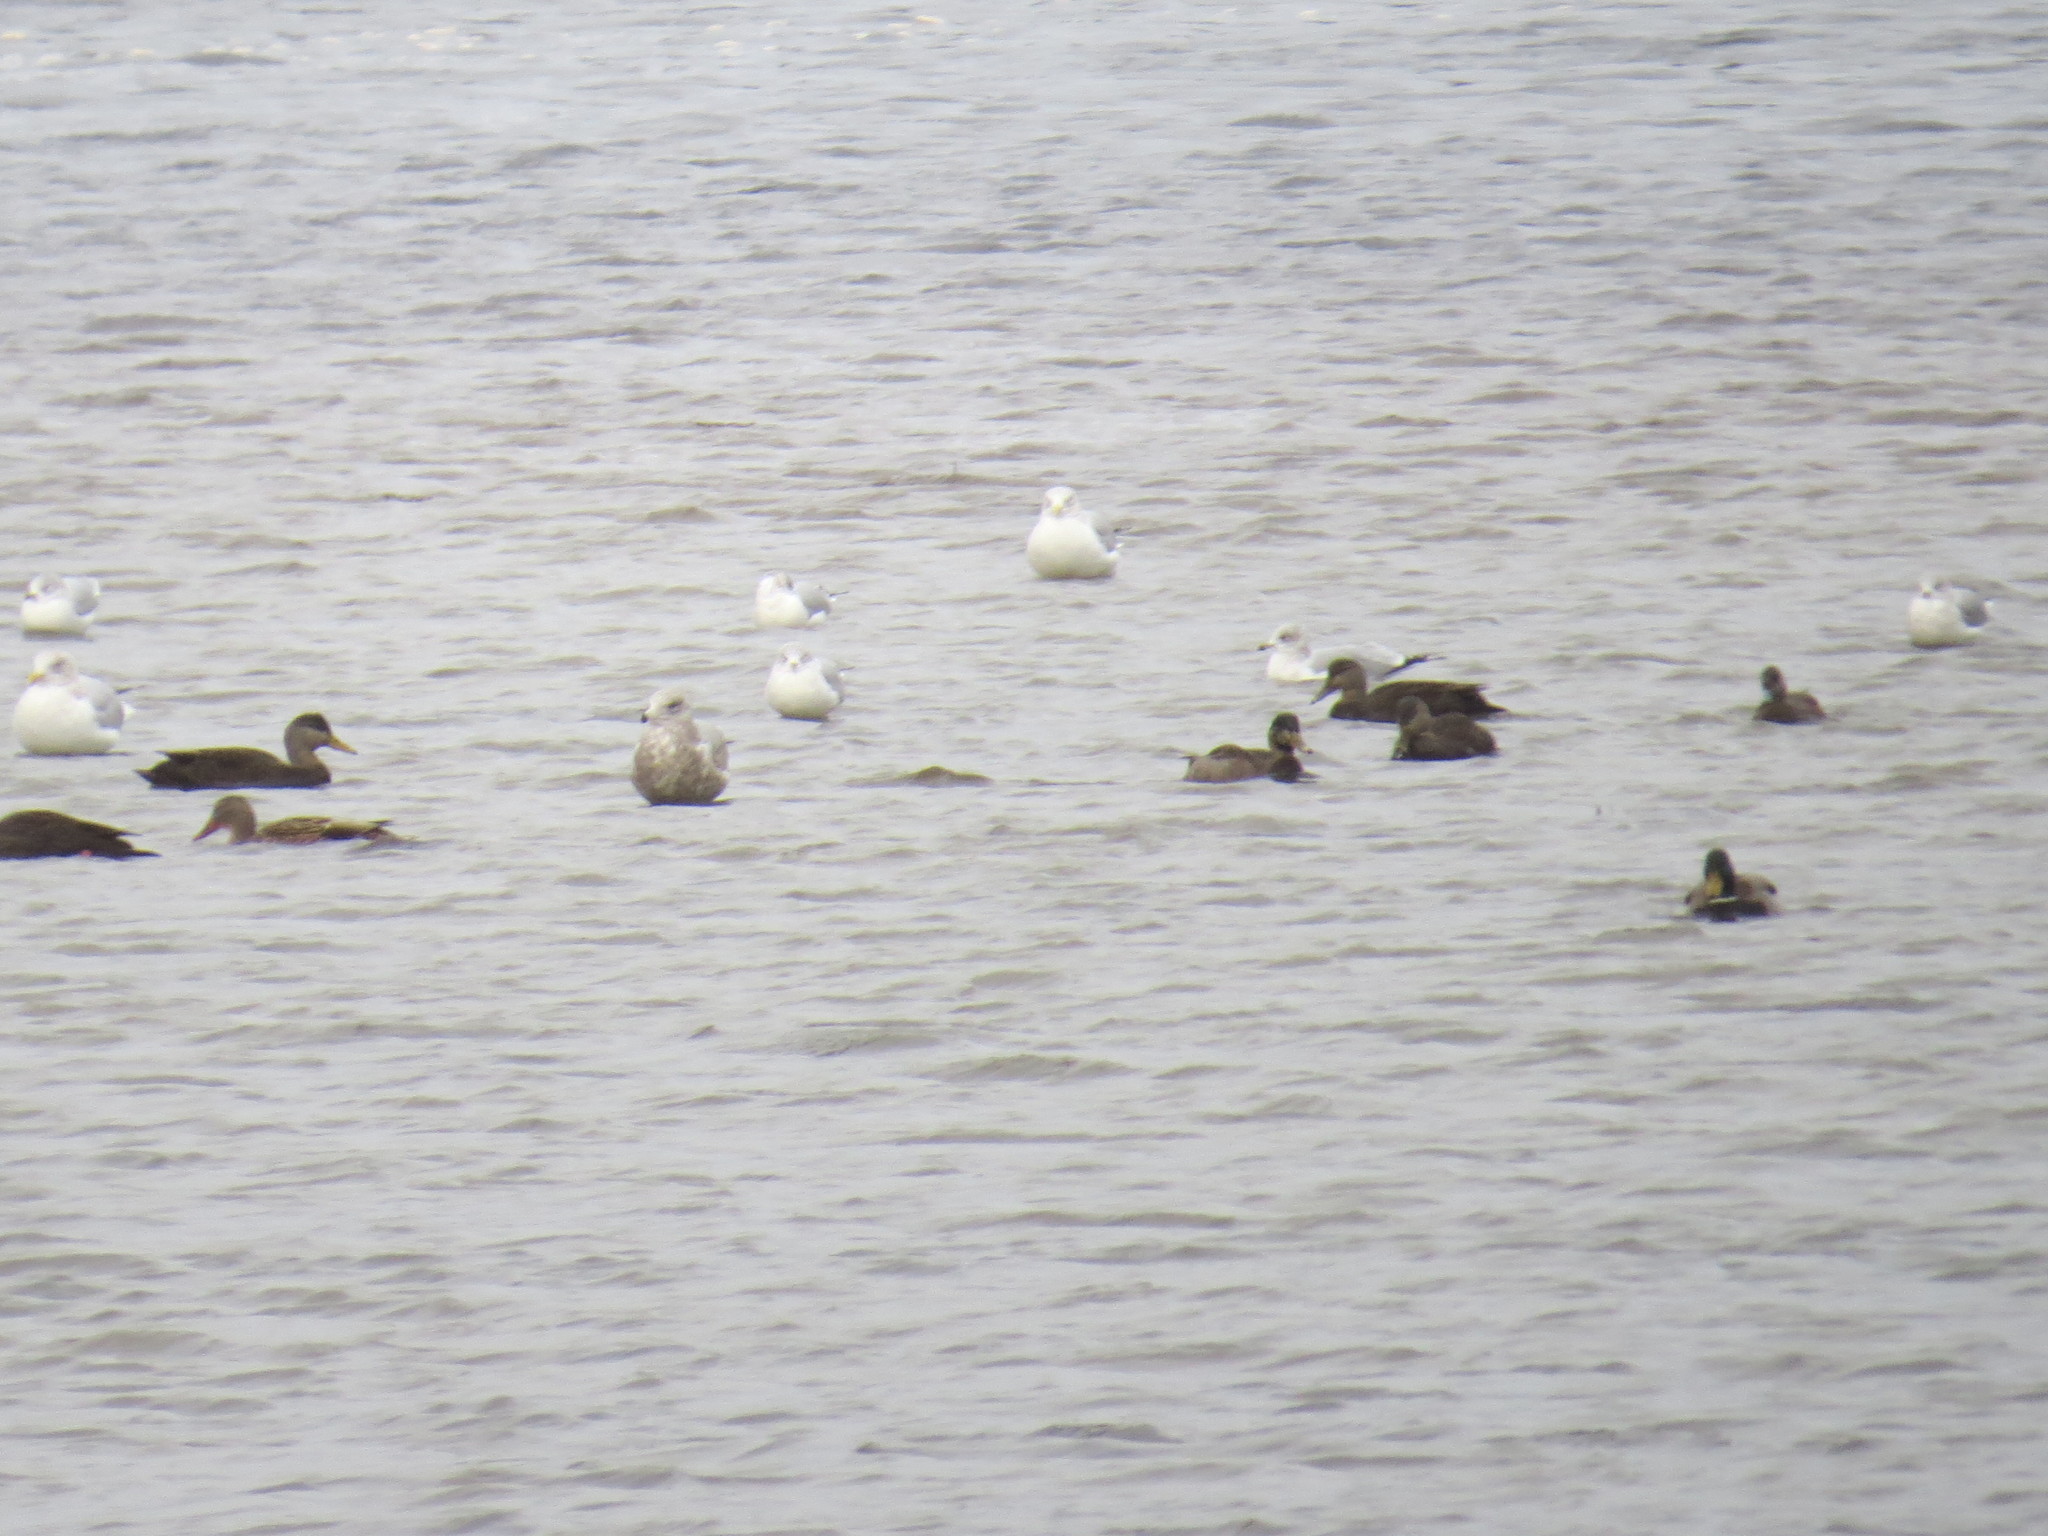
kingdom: Animalia
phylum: Chordata
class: Aves
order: Charadriiformes
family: Laridae
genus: Larus
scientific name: Larus argentatus
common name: Herring gull
